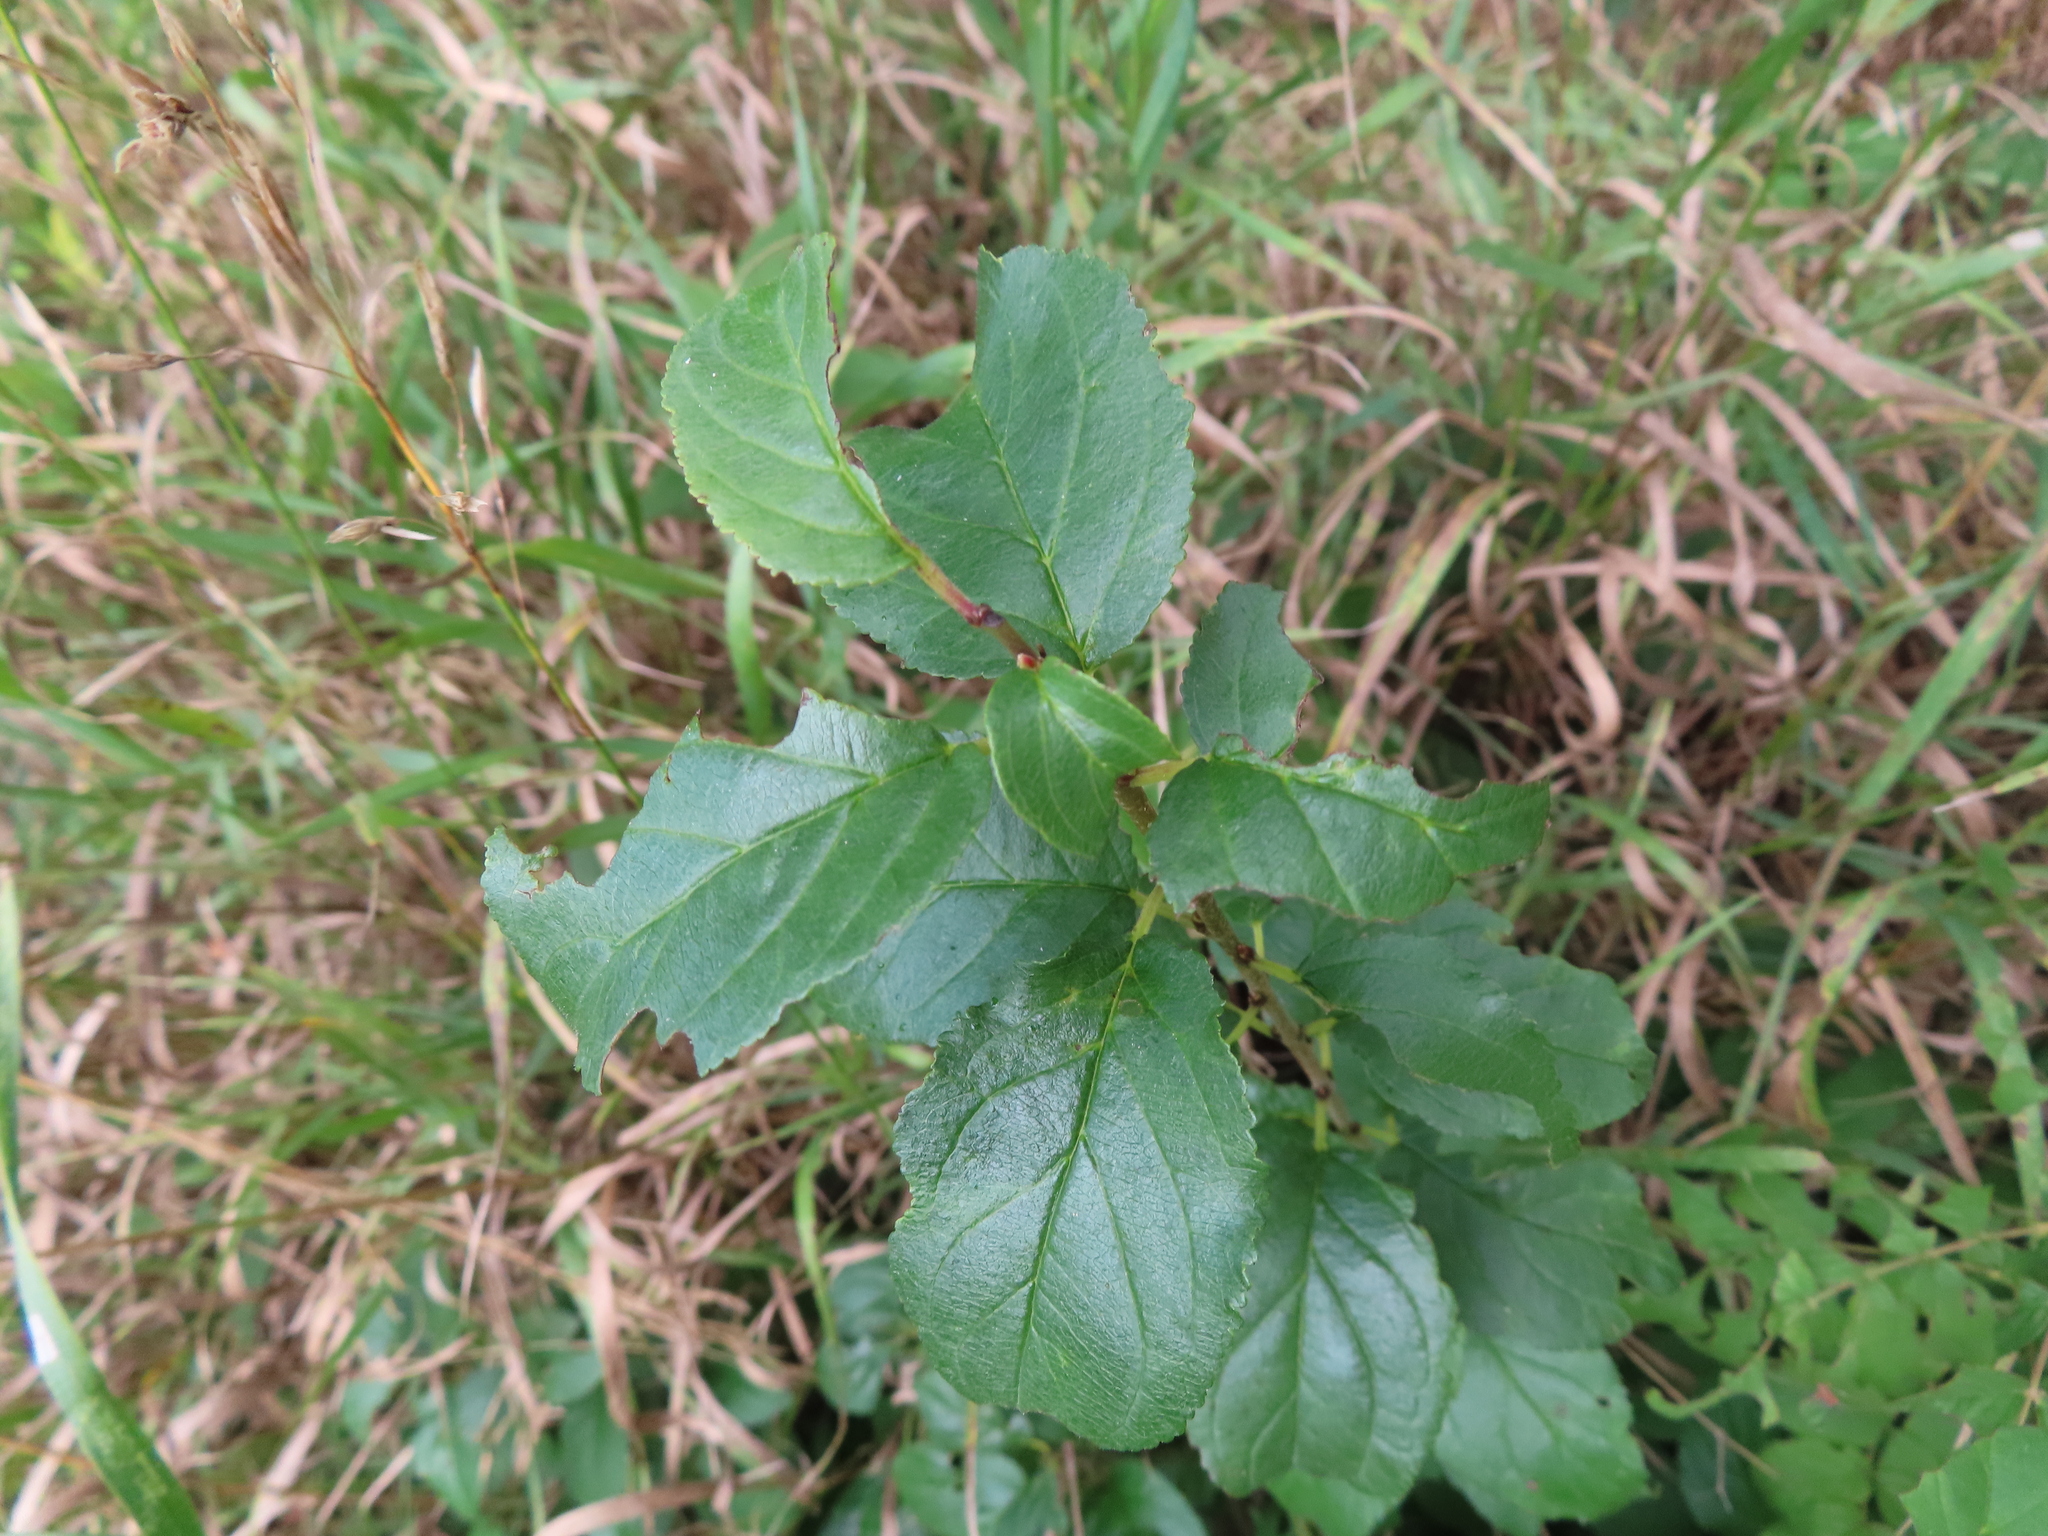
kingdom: Plantae
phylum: Tracheophyta
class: Magnoliopsida
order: Rosales
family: Rhamnaceae
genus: Rhamnus
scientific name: Rhamnus cathartica
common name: Common buckthorn
